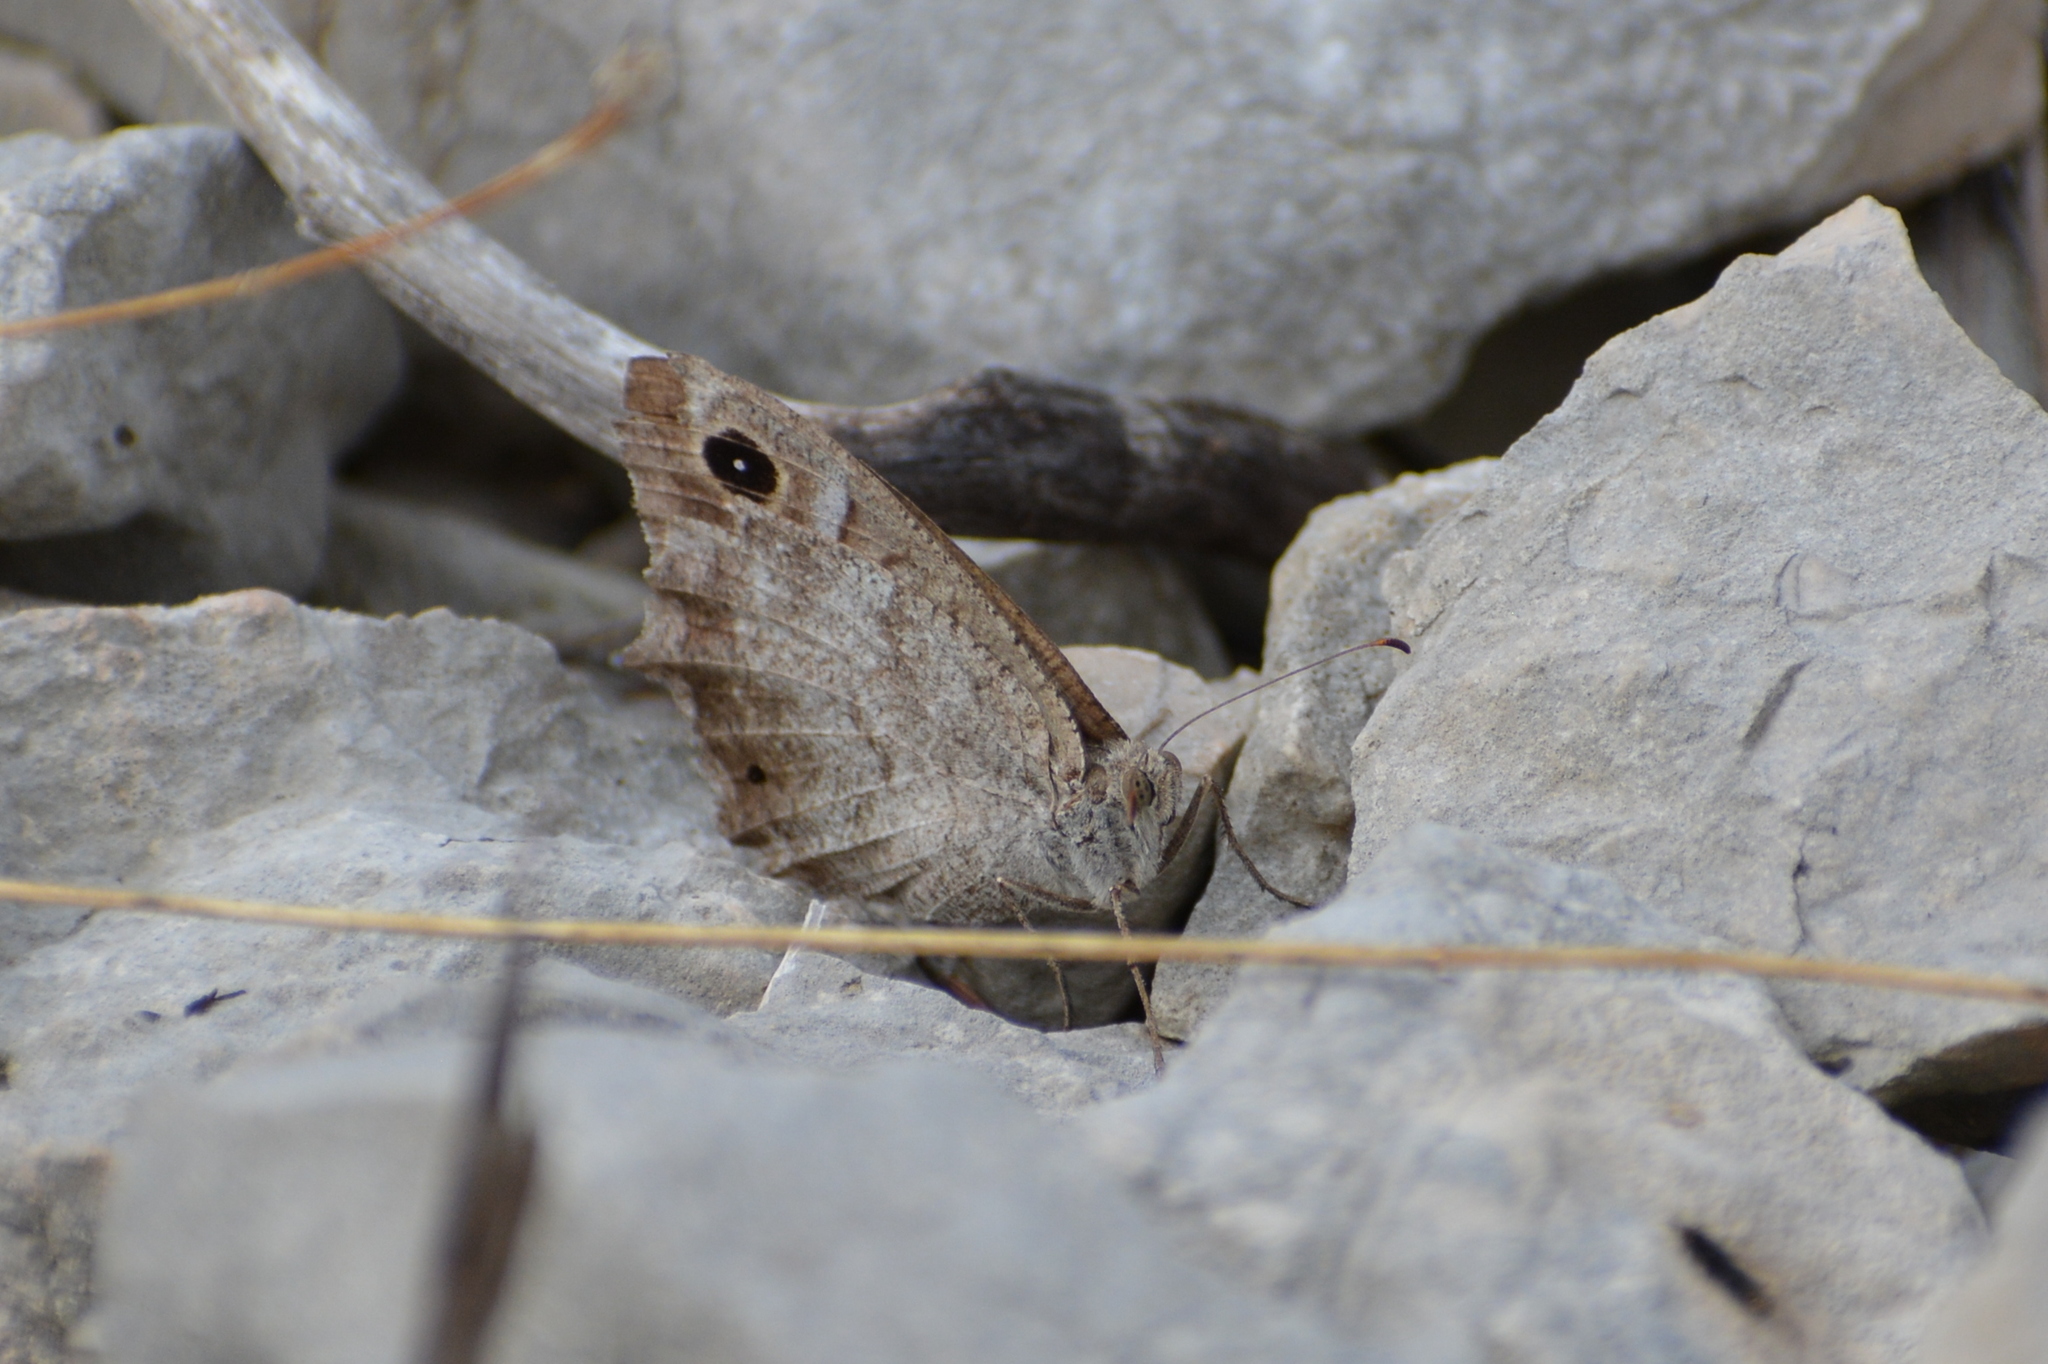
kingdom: Animalia
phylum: Arthropoda
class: Insecta
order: Lepidoptera
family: Nymphalidae
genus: Hipparchia
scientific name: Hipparchia statilinus
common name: Tree grayling
